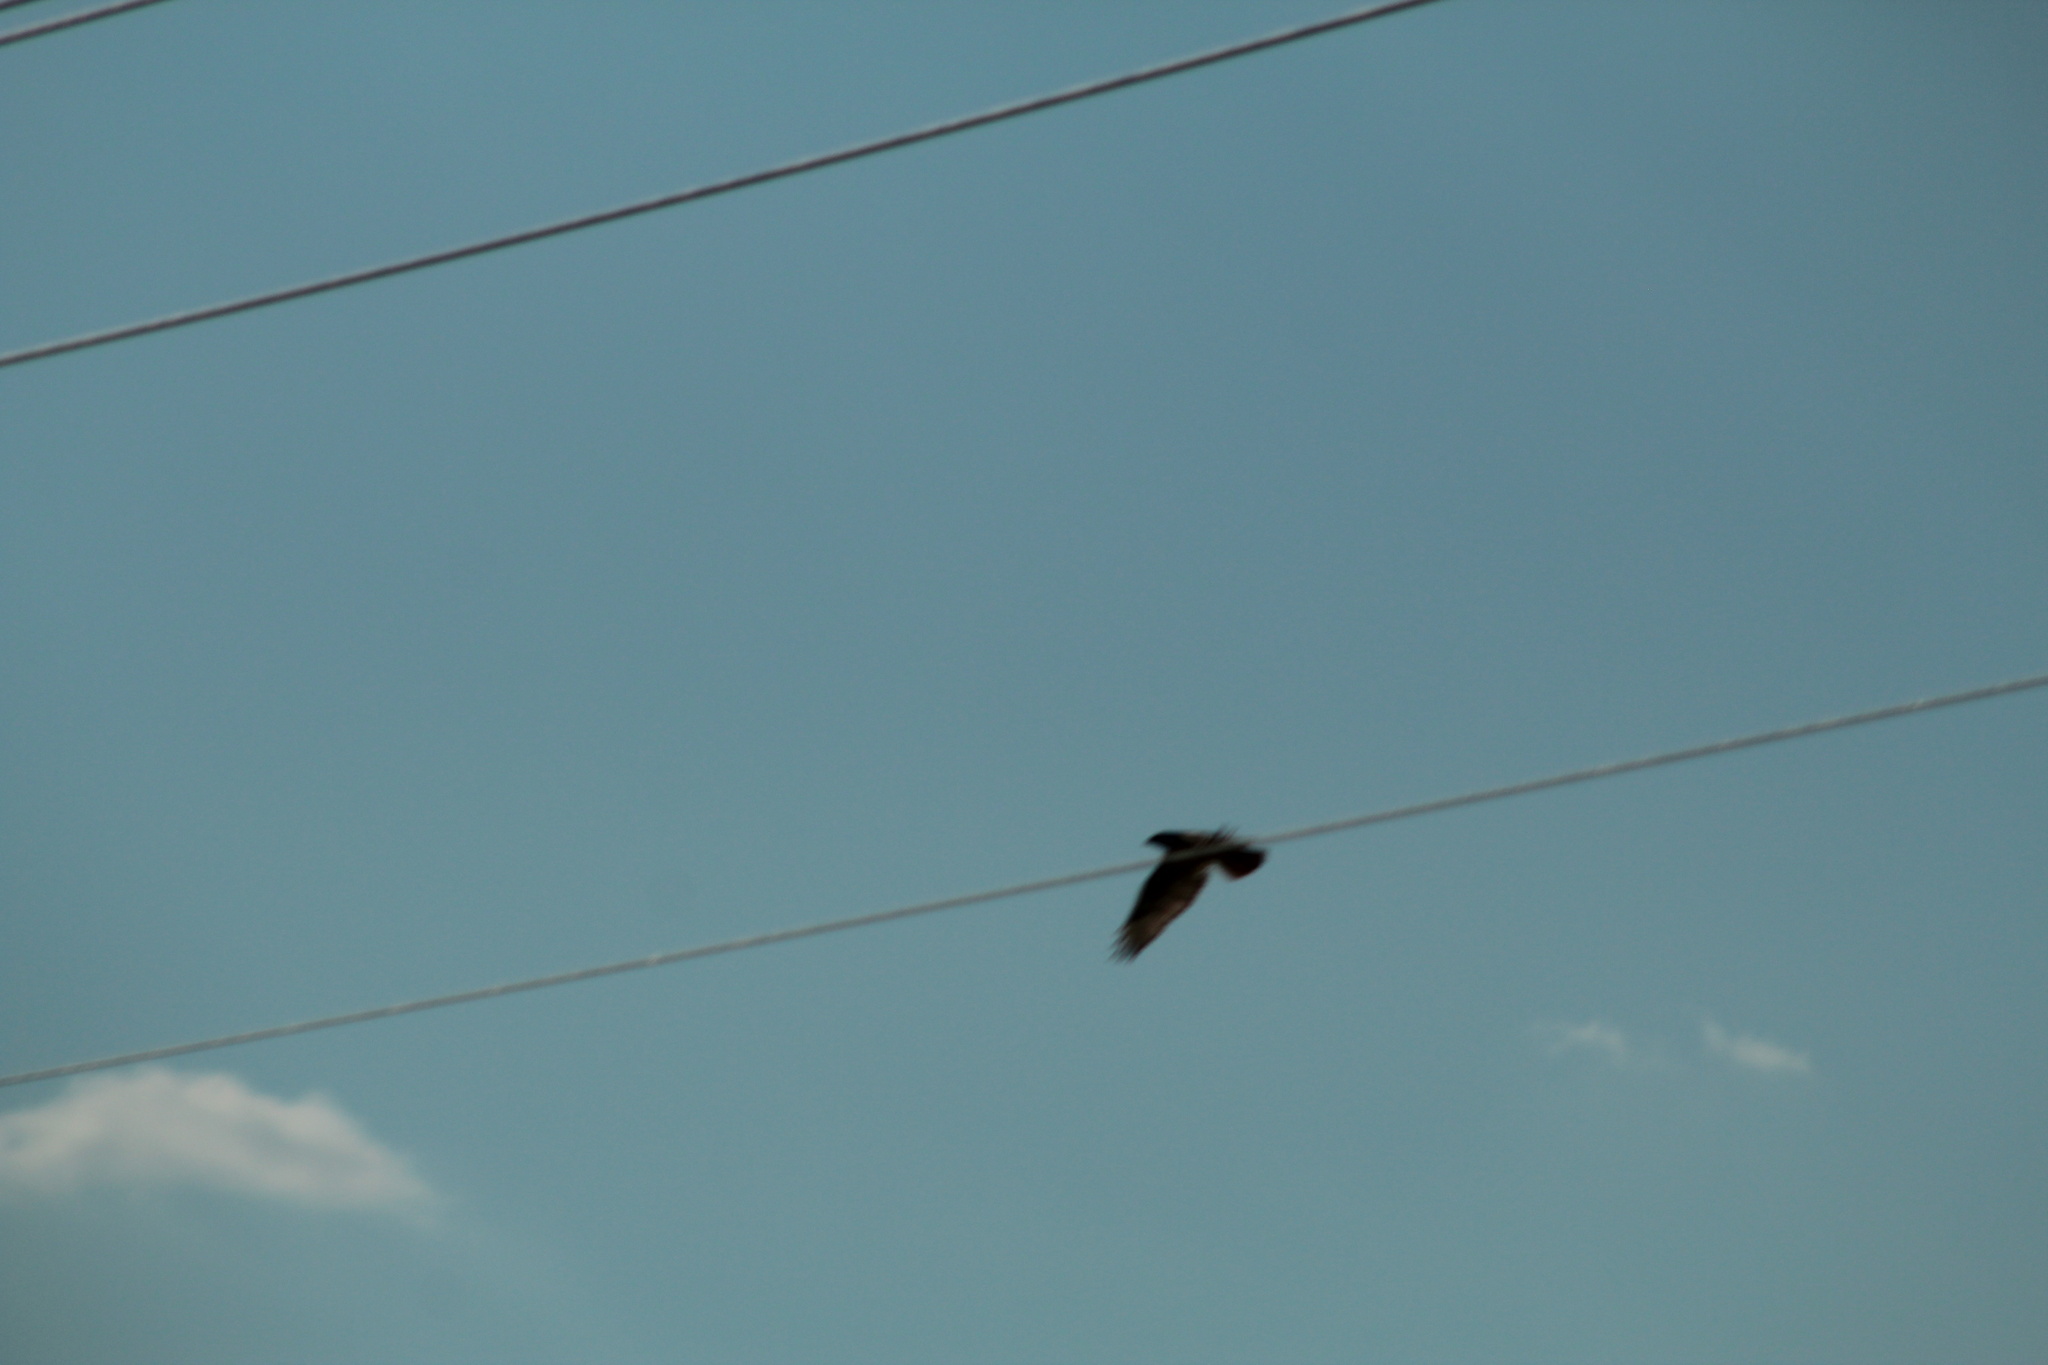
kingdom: Animalia
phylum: Chordata
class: Aves
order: Accipitriformes
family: Accipitridae
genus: Buteo
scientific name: Buteo jamaicensis
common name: Red-tailed hawk
